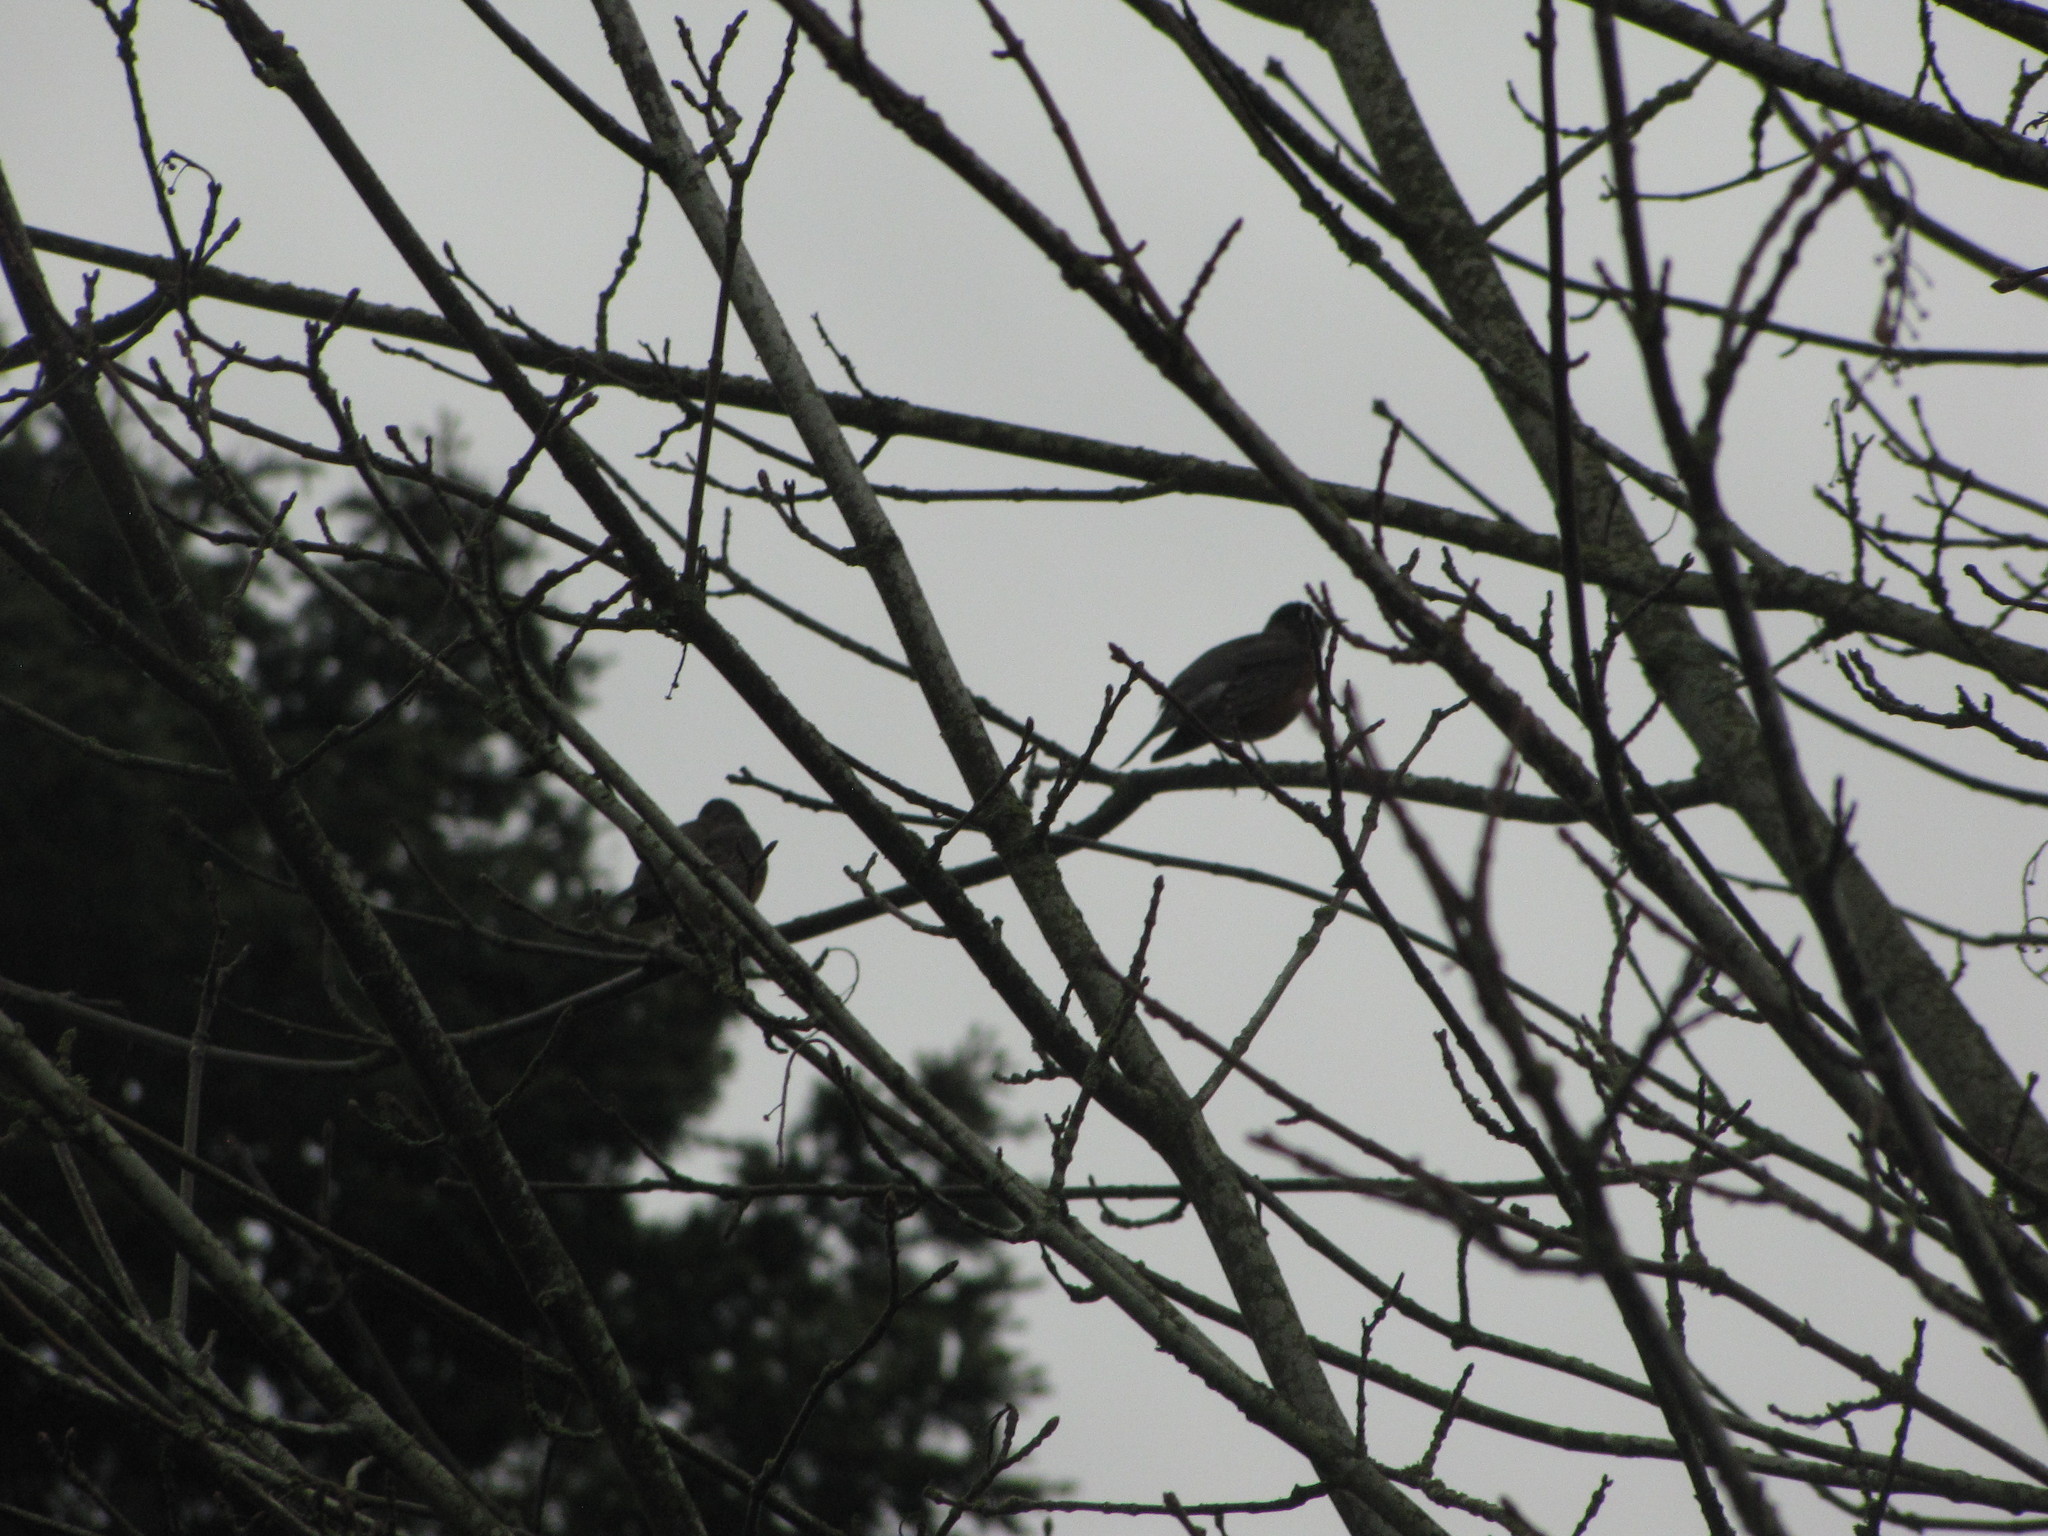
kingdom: Animalia
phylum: Chordata
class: Aves
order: Passeriformes
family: Turdidae
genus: Turdus
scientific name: Turdus migratorius
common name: American robin
